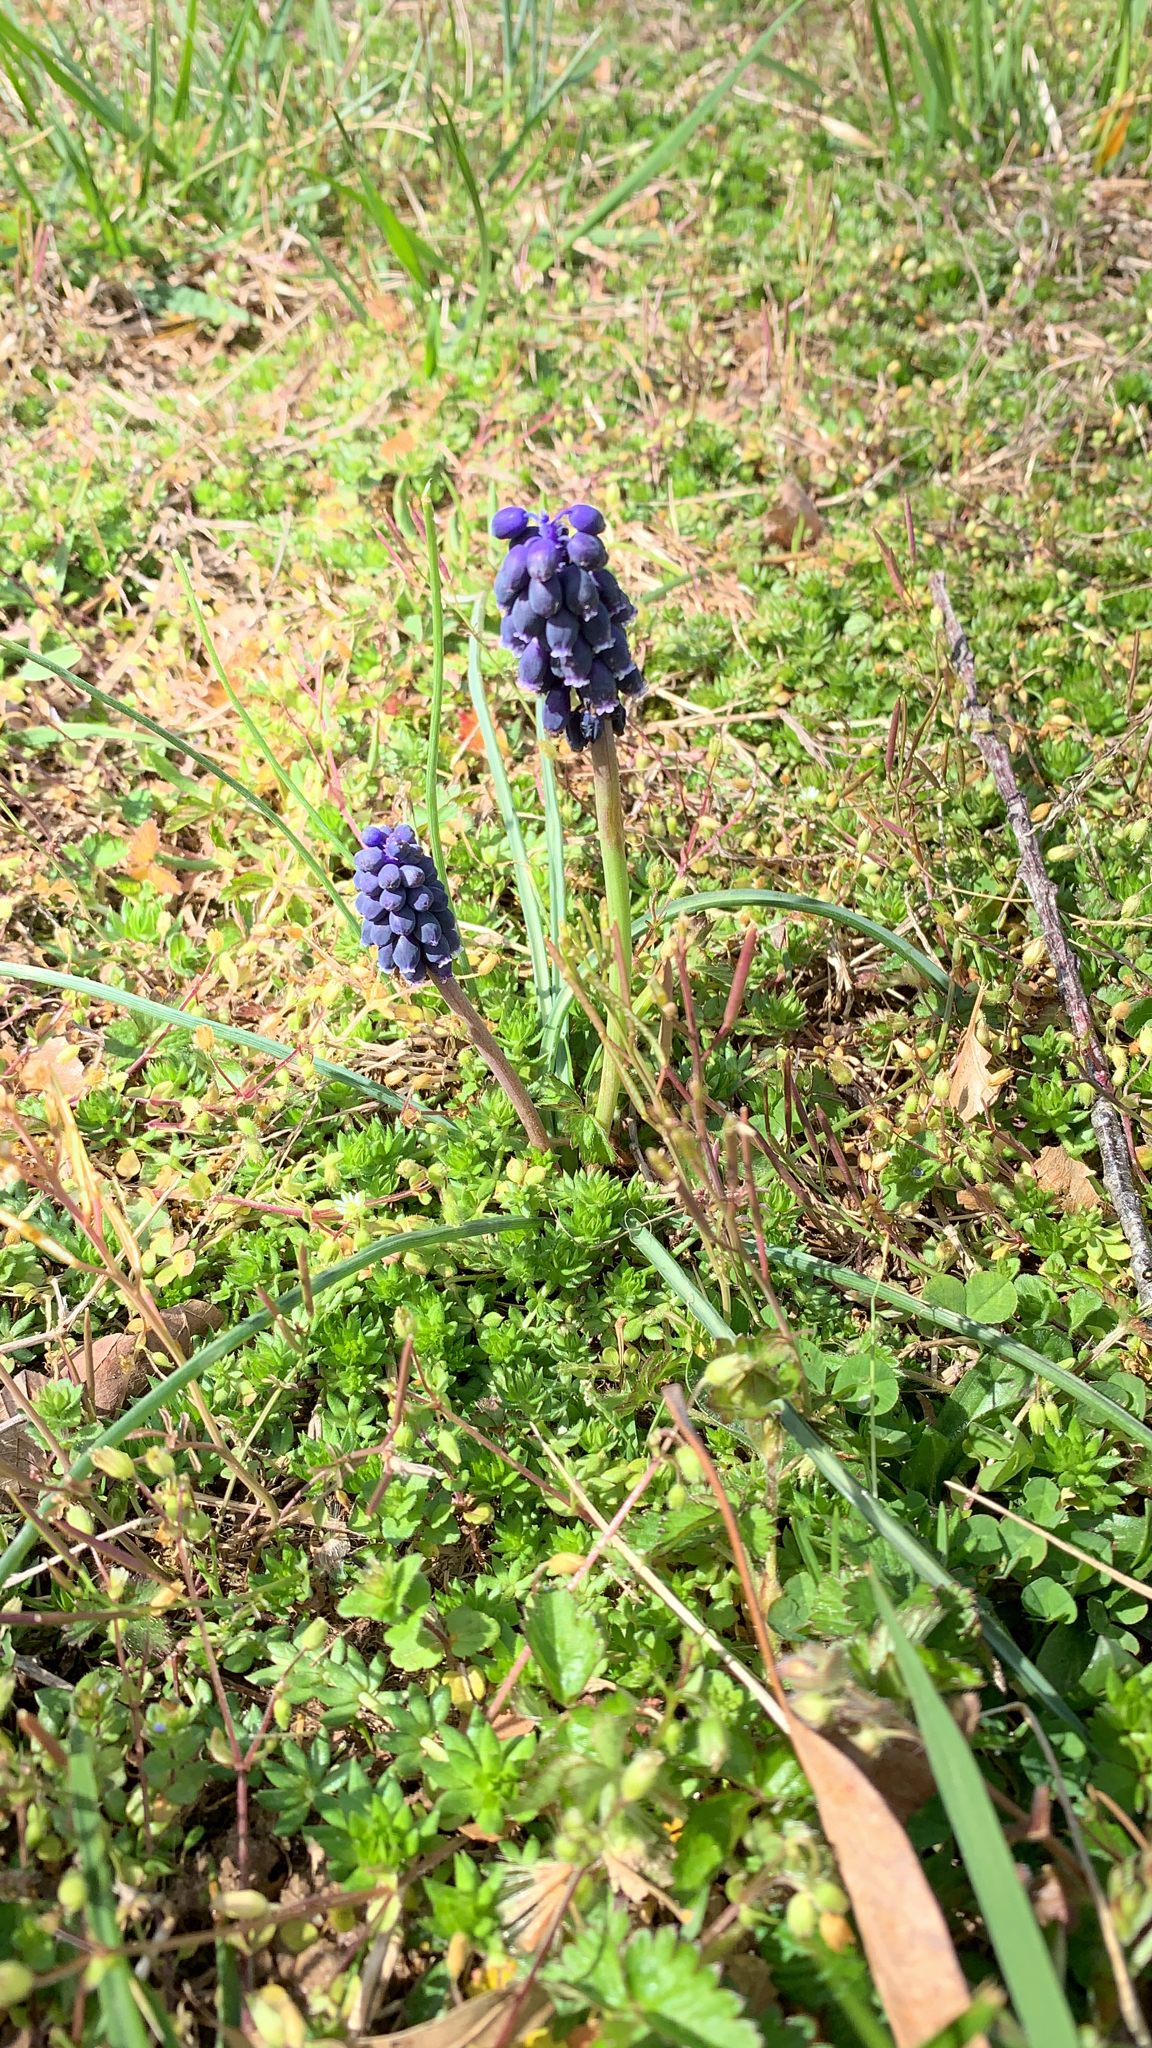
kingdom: Plantae
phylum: Tracheophyta
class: Liliopsida
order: Asparagales
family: Asparagaceae
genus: Muscari
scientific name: Muscari neglectum
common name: Grape-hyacinth
